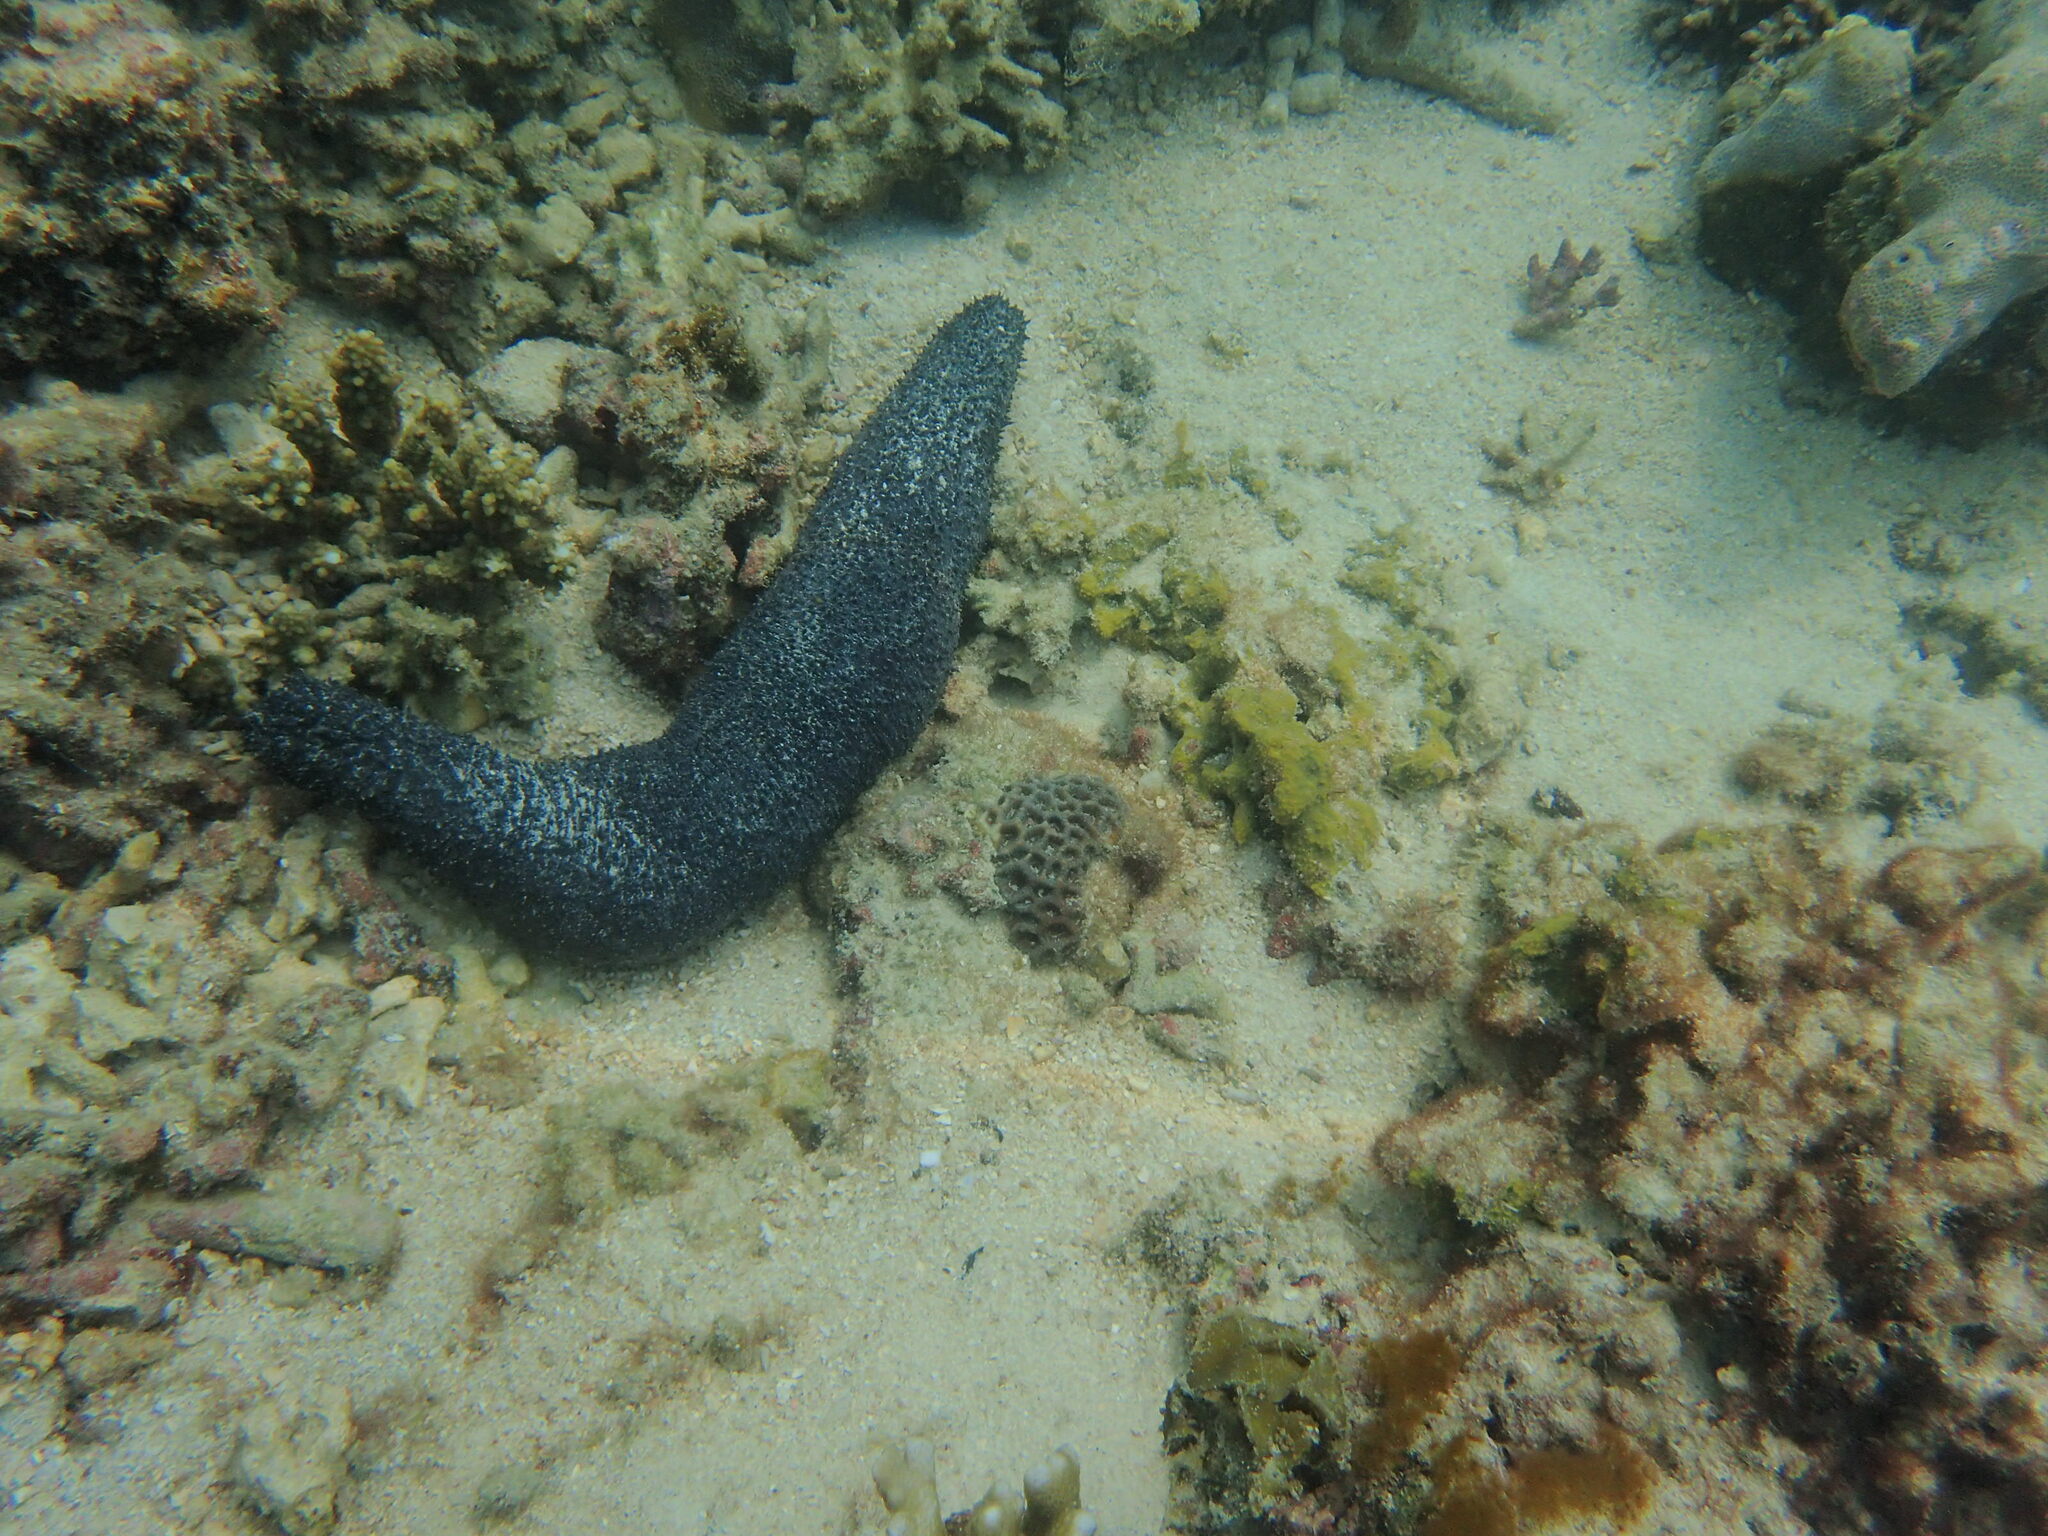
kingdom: Animalia
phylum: Echinodermata
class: Holothuroidea
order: Holothuriida
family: Holothuriidae
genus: Holothuria
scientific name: Holothuria leucospilota
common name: White thread fish
